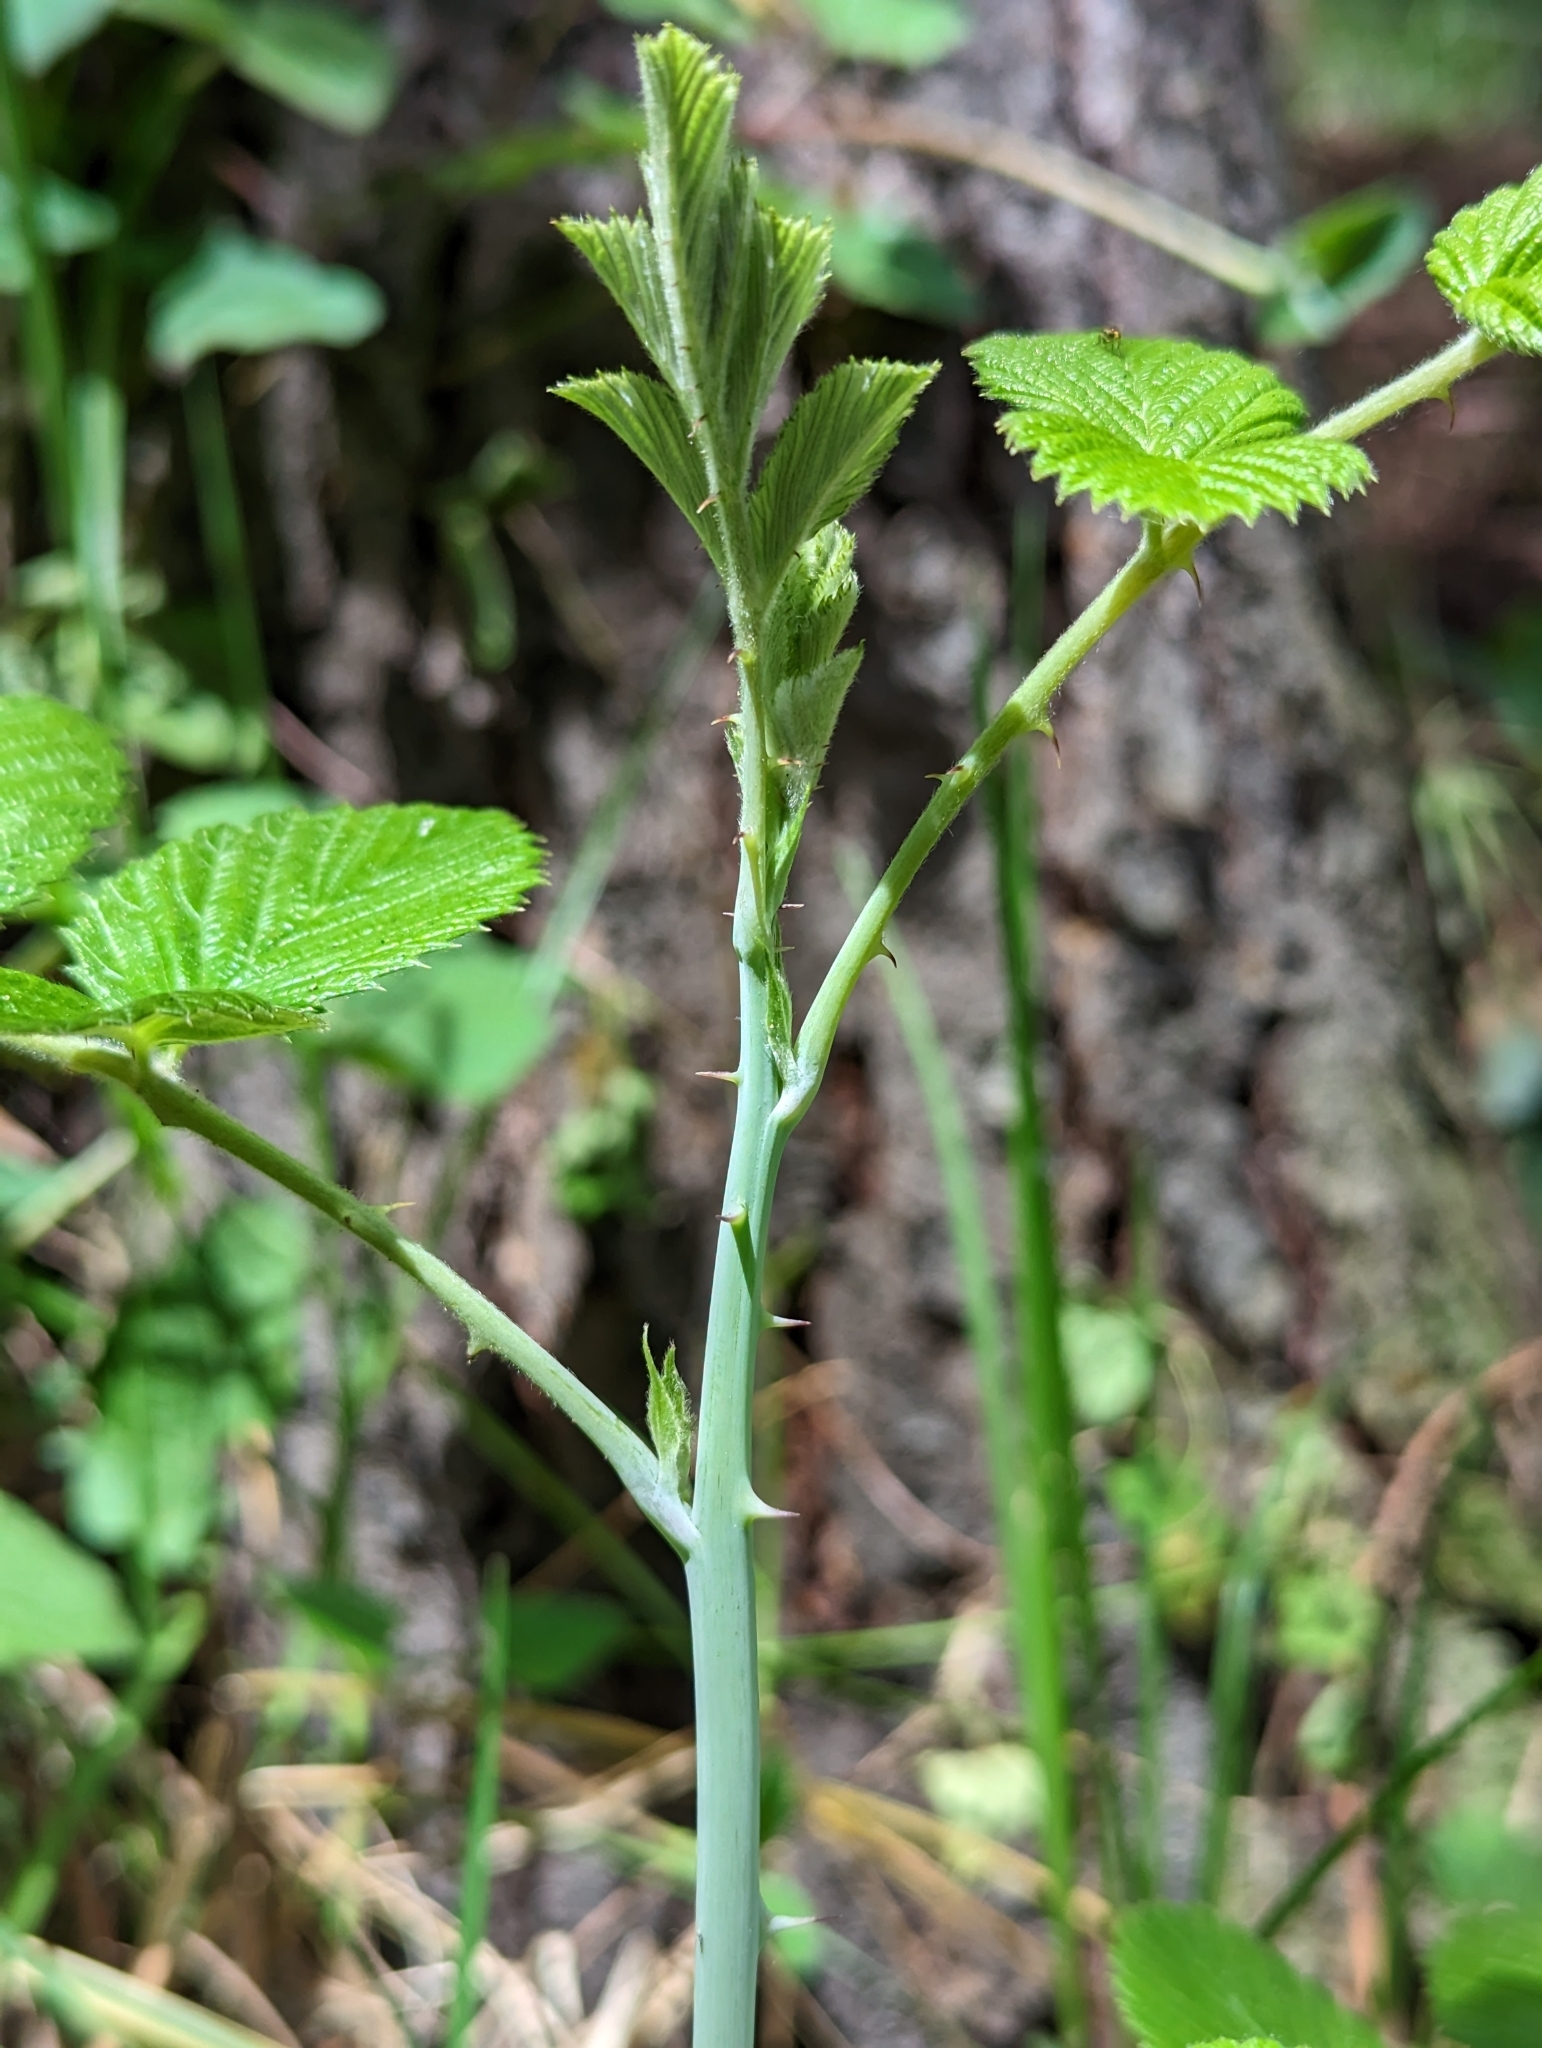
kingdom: Plantae
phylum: Tracheophyta
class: Magnoliopsida
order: Rosales
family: Rosaceae
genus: Rubus
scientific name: Rubus niveus
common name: Snowpeaks raspberry
